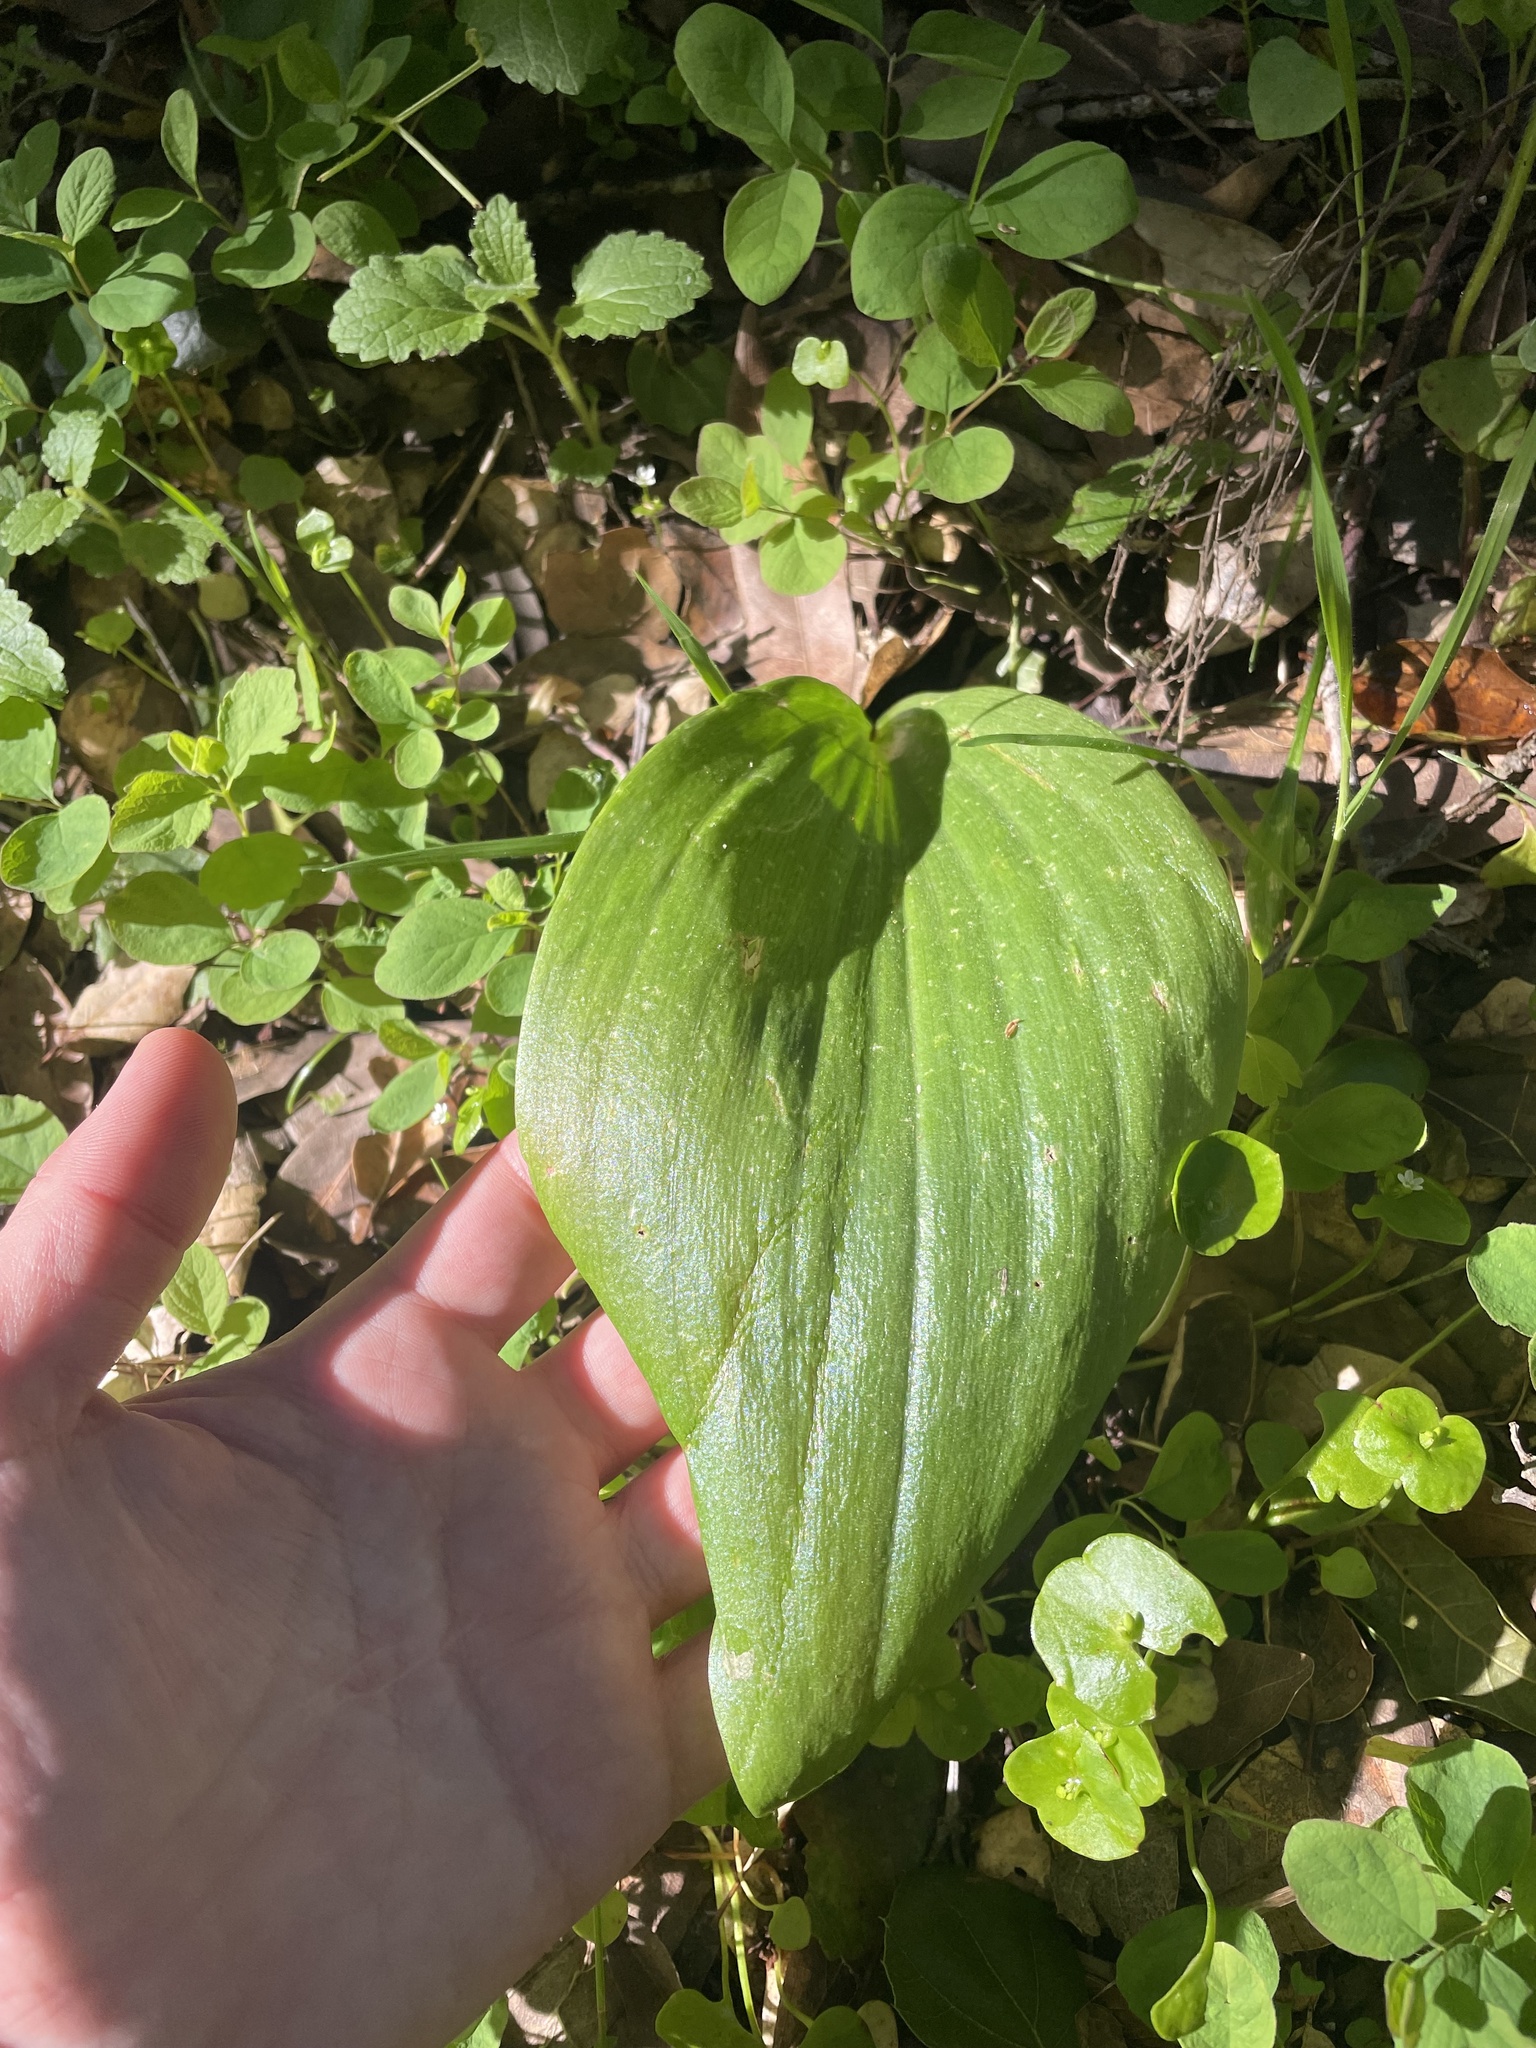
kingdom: Plantae
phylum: Tracheophyta
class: Liliopsida
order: Liliales
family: Liliaceae
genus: Fritillaria
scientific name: Fritillaria affinis
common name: Ojai fritillary
